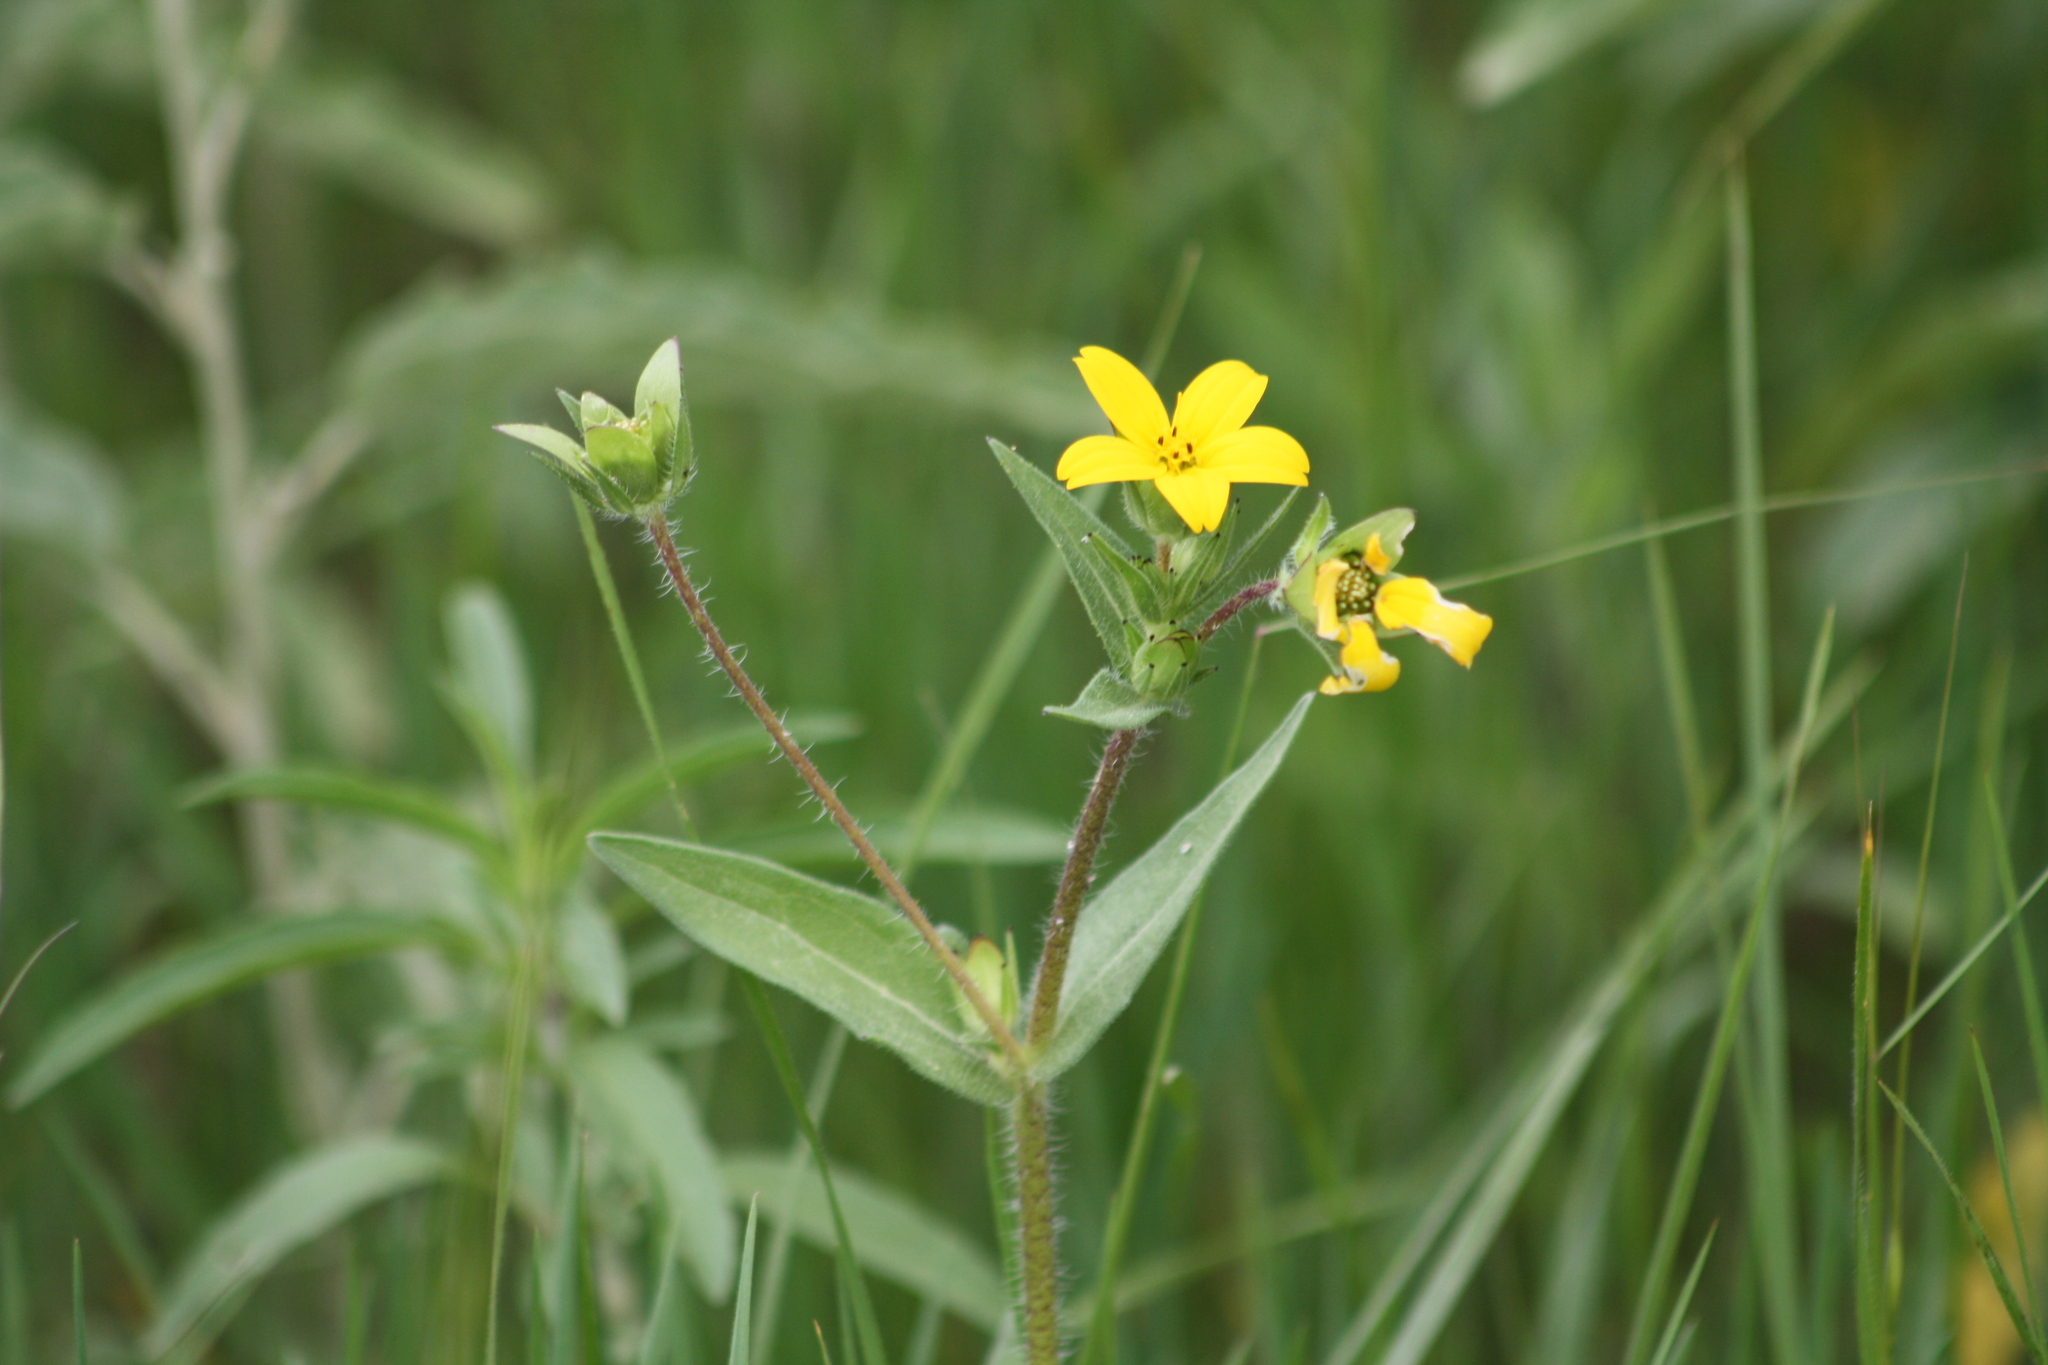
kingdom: Plantae
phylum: Tracheophyta
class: Magnoliopsida
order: Asterales
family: Asteraceae
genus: Lindheimera
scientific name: Lindheimera texana
